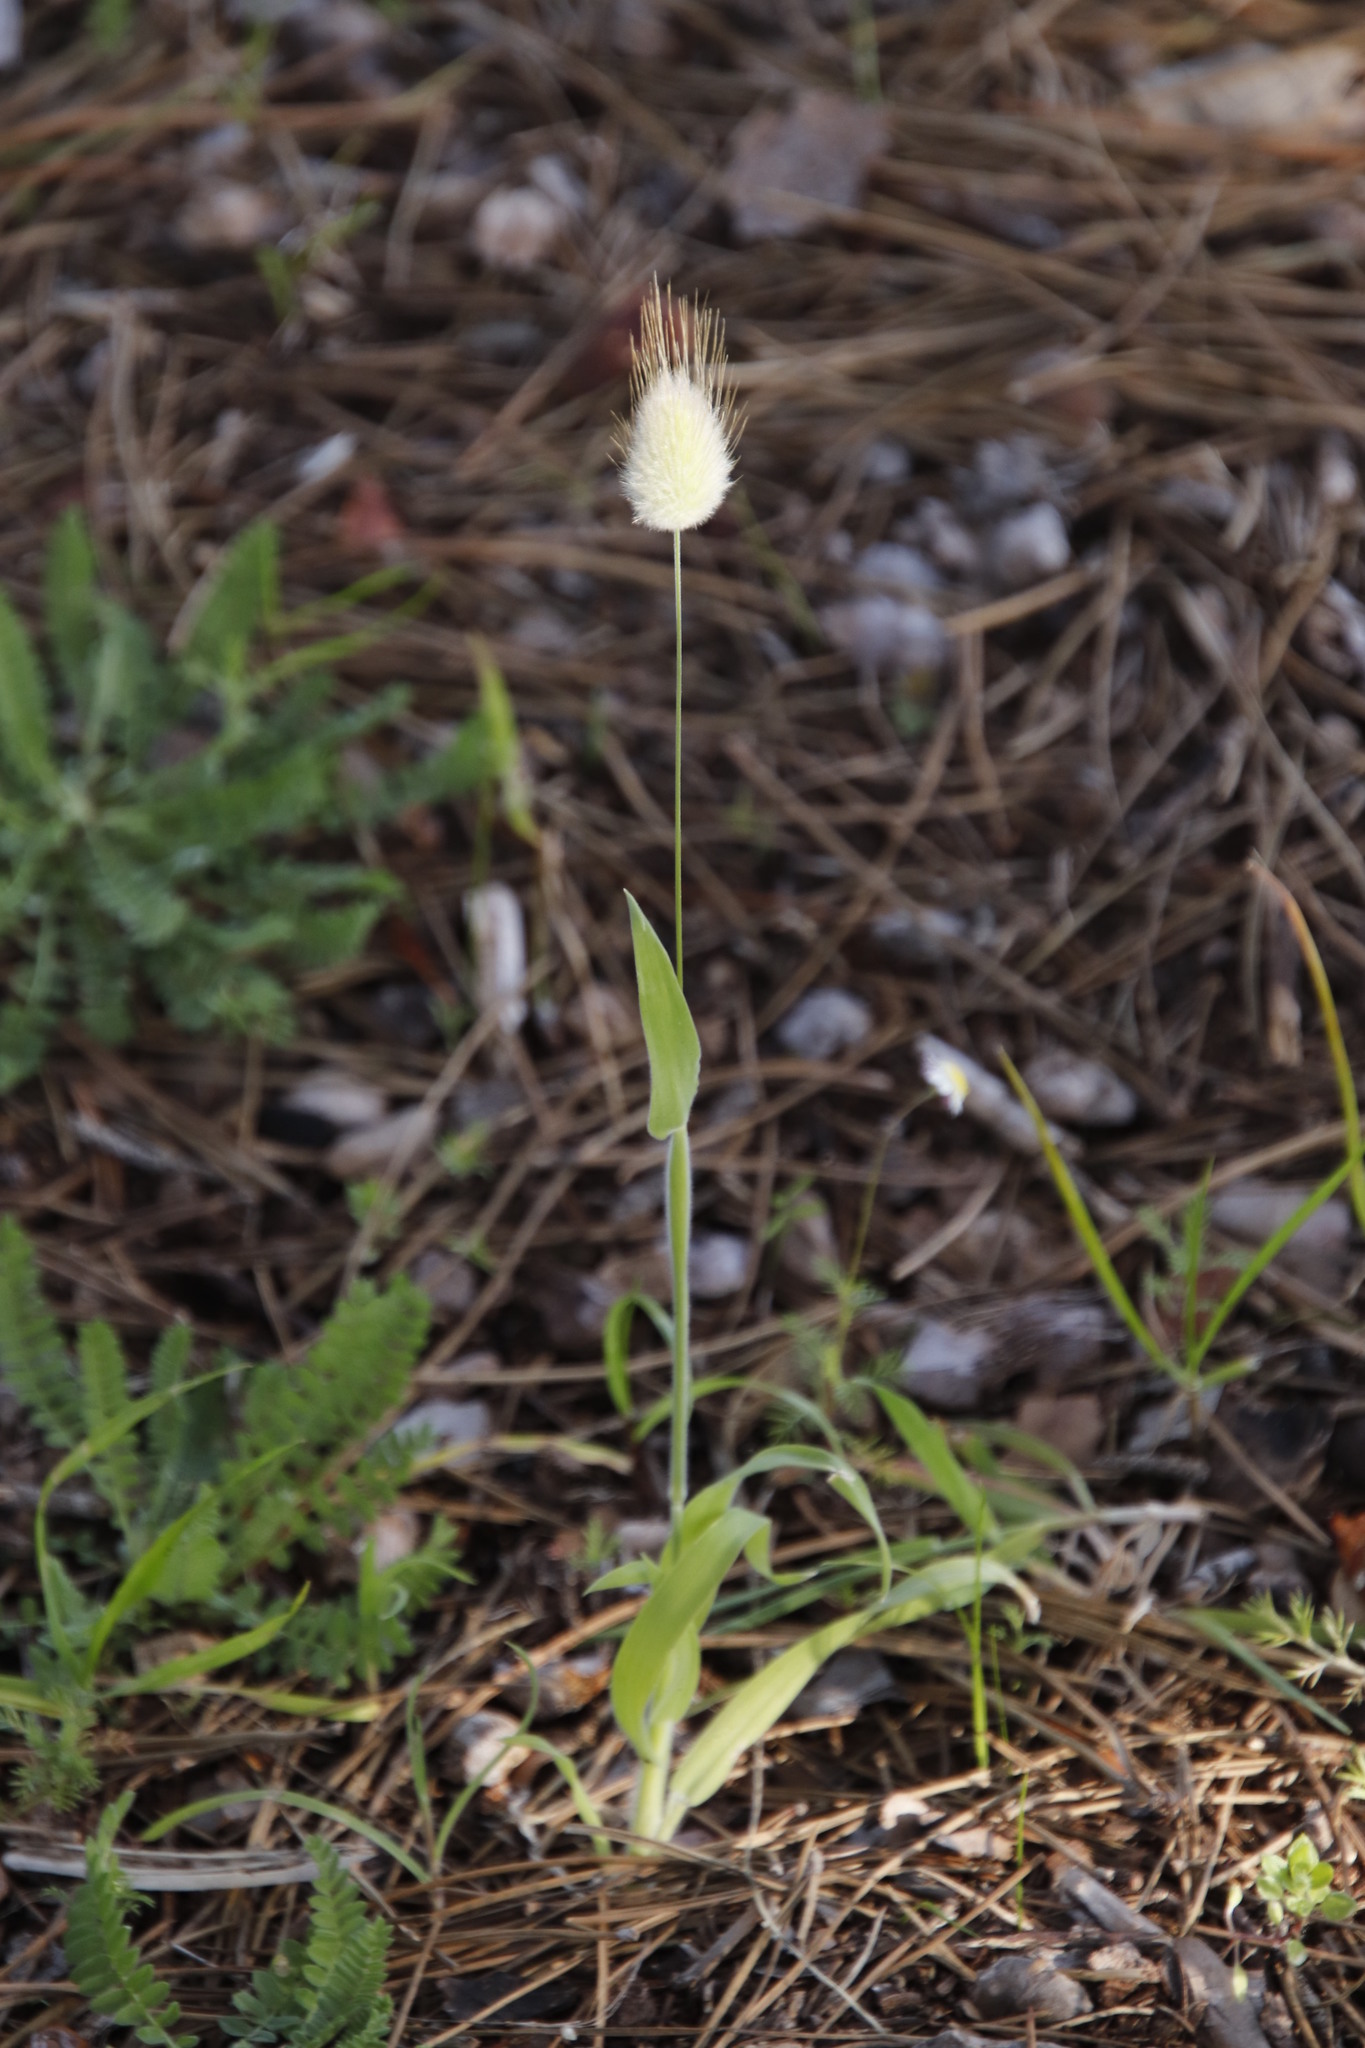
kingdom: Plantae
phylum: Tracheophyta
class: Liliopsida
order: Poales
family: Poaceae
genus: Lagurus
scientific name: Lagurus ovatus
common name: Hare's-tail
